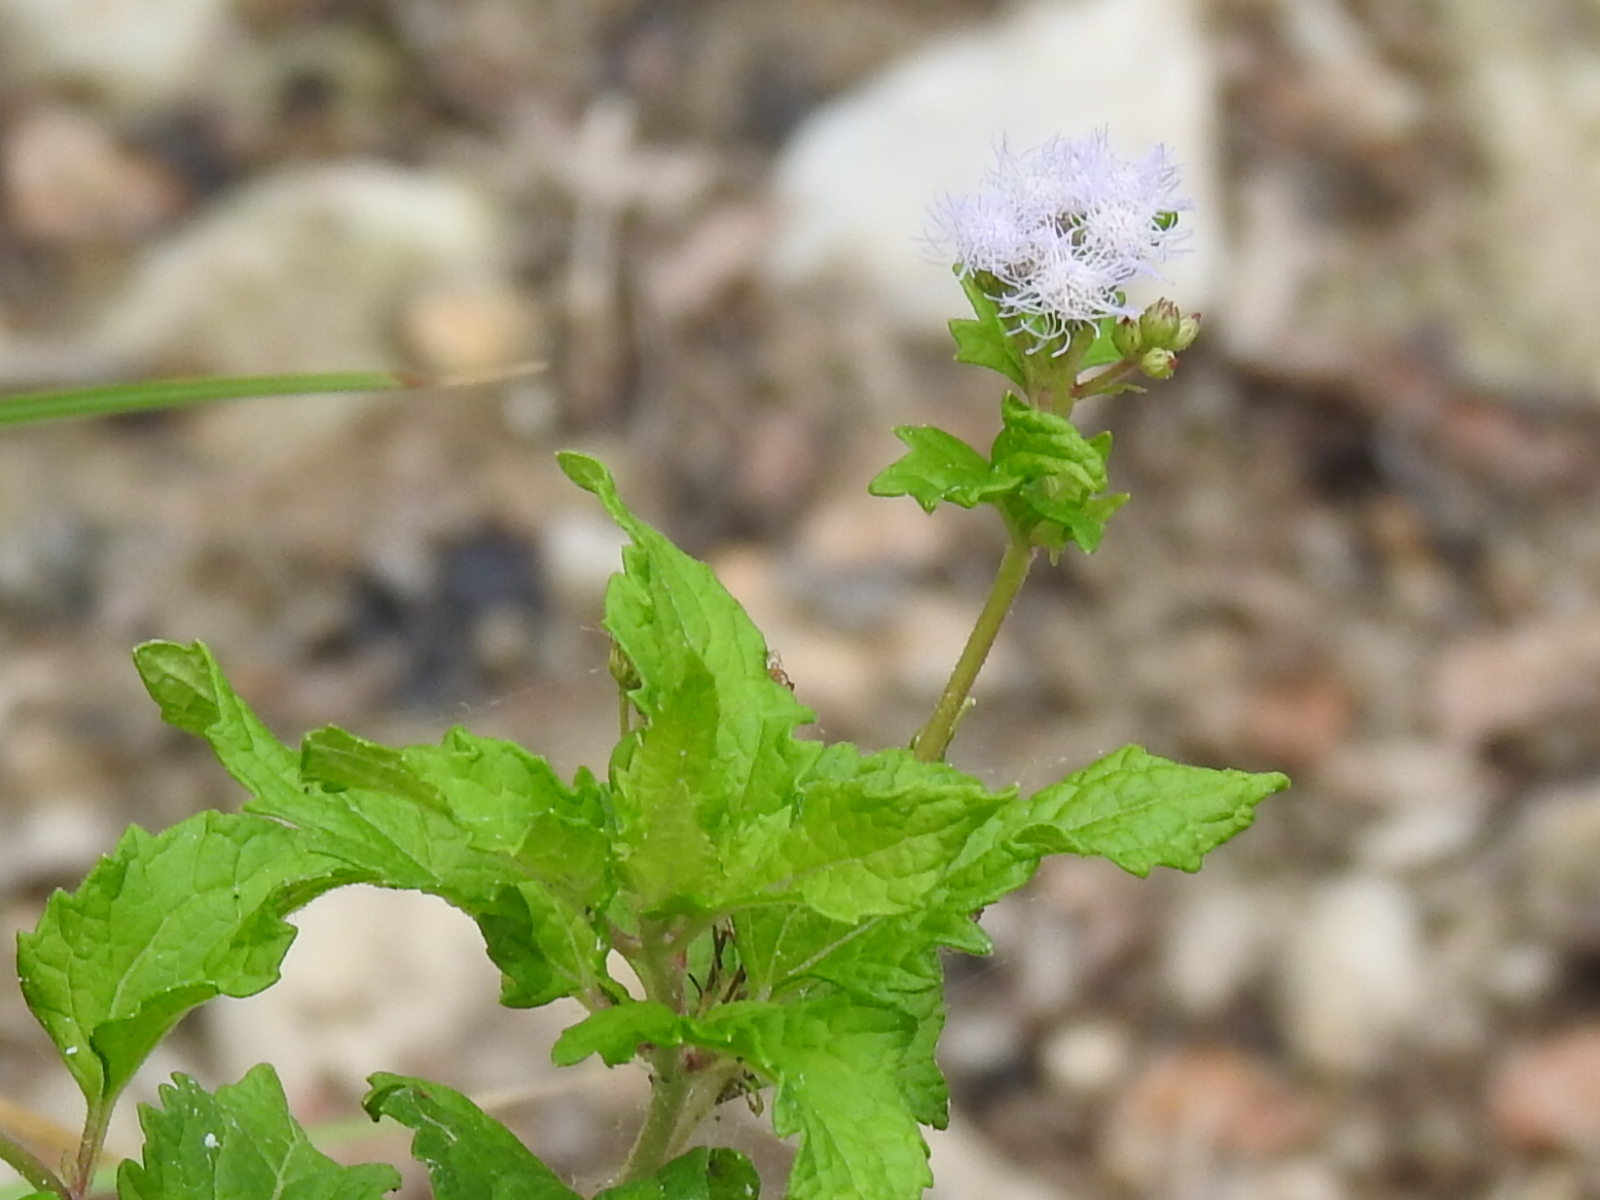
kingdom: Plantae
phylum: Tracheophyta
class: Magnoliopsida
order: Asterales
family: Asteraceae
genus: Conoclinium
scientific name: Conoclinium coelestinum
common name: Blue mistflower
